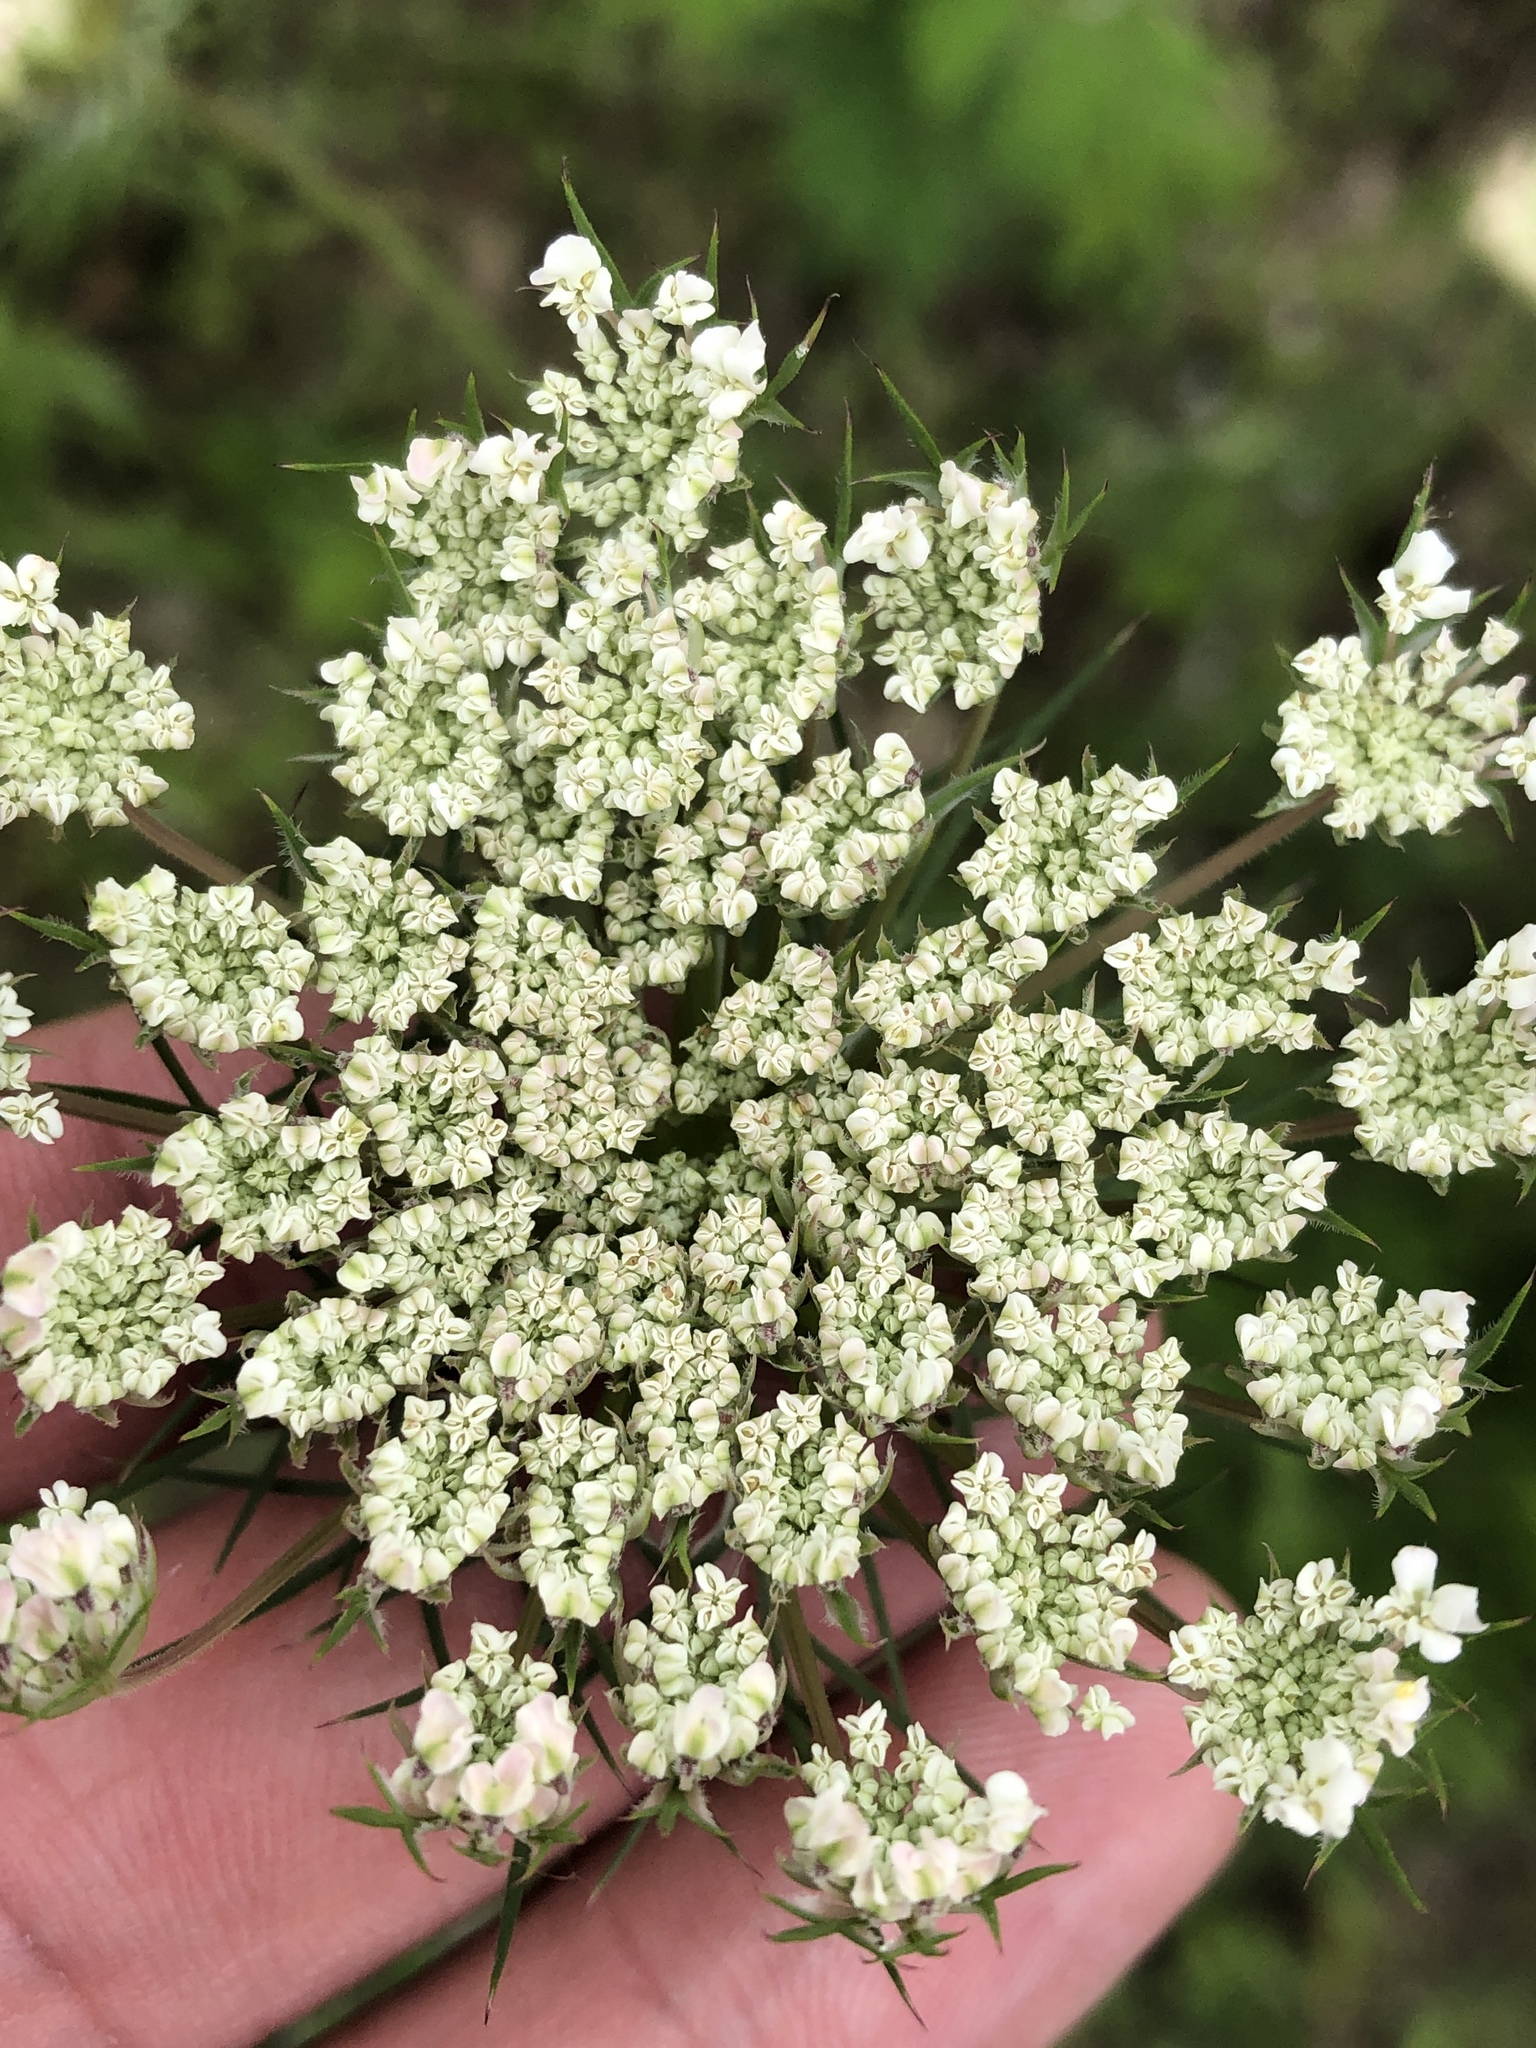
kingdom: Plantae
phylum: Tracheophyta
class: Magnoliopsida
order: Apiales
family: Apiaceae
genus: Daucus
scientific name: Daucus carota
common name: Wild carrot
